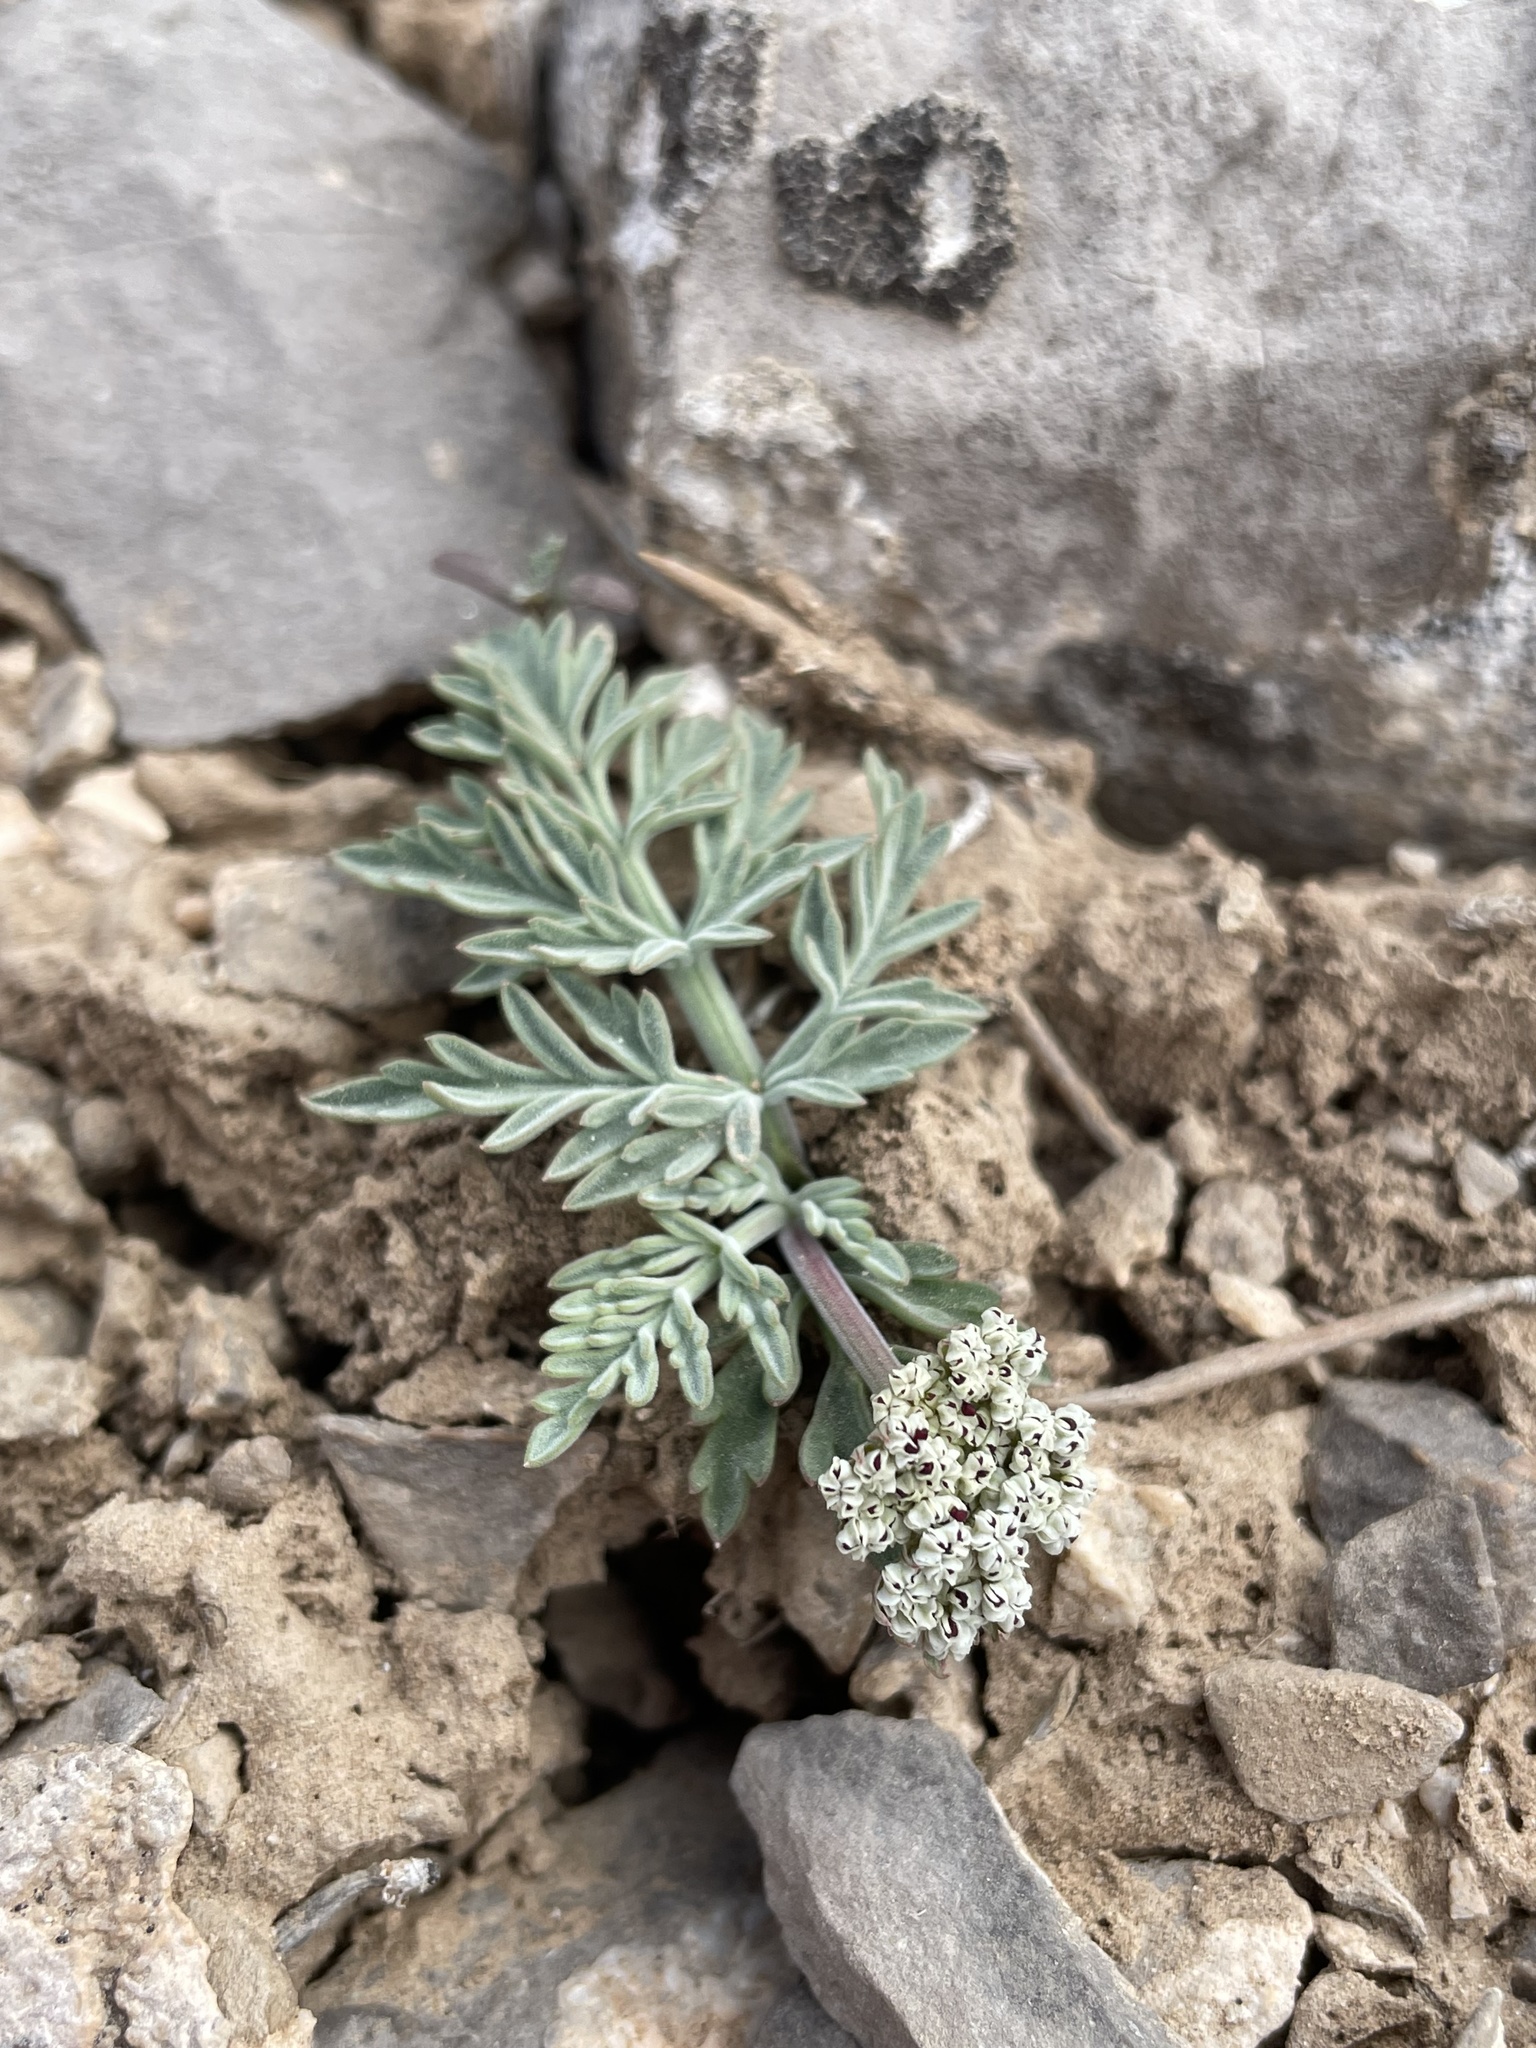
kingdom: Plantae
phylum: Tracheophyta
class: Magnoliopsida
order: Apiales
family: Apiaceae
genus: Lomatium
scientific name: Lomatium nevadense
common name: Nevada lomatium
